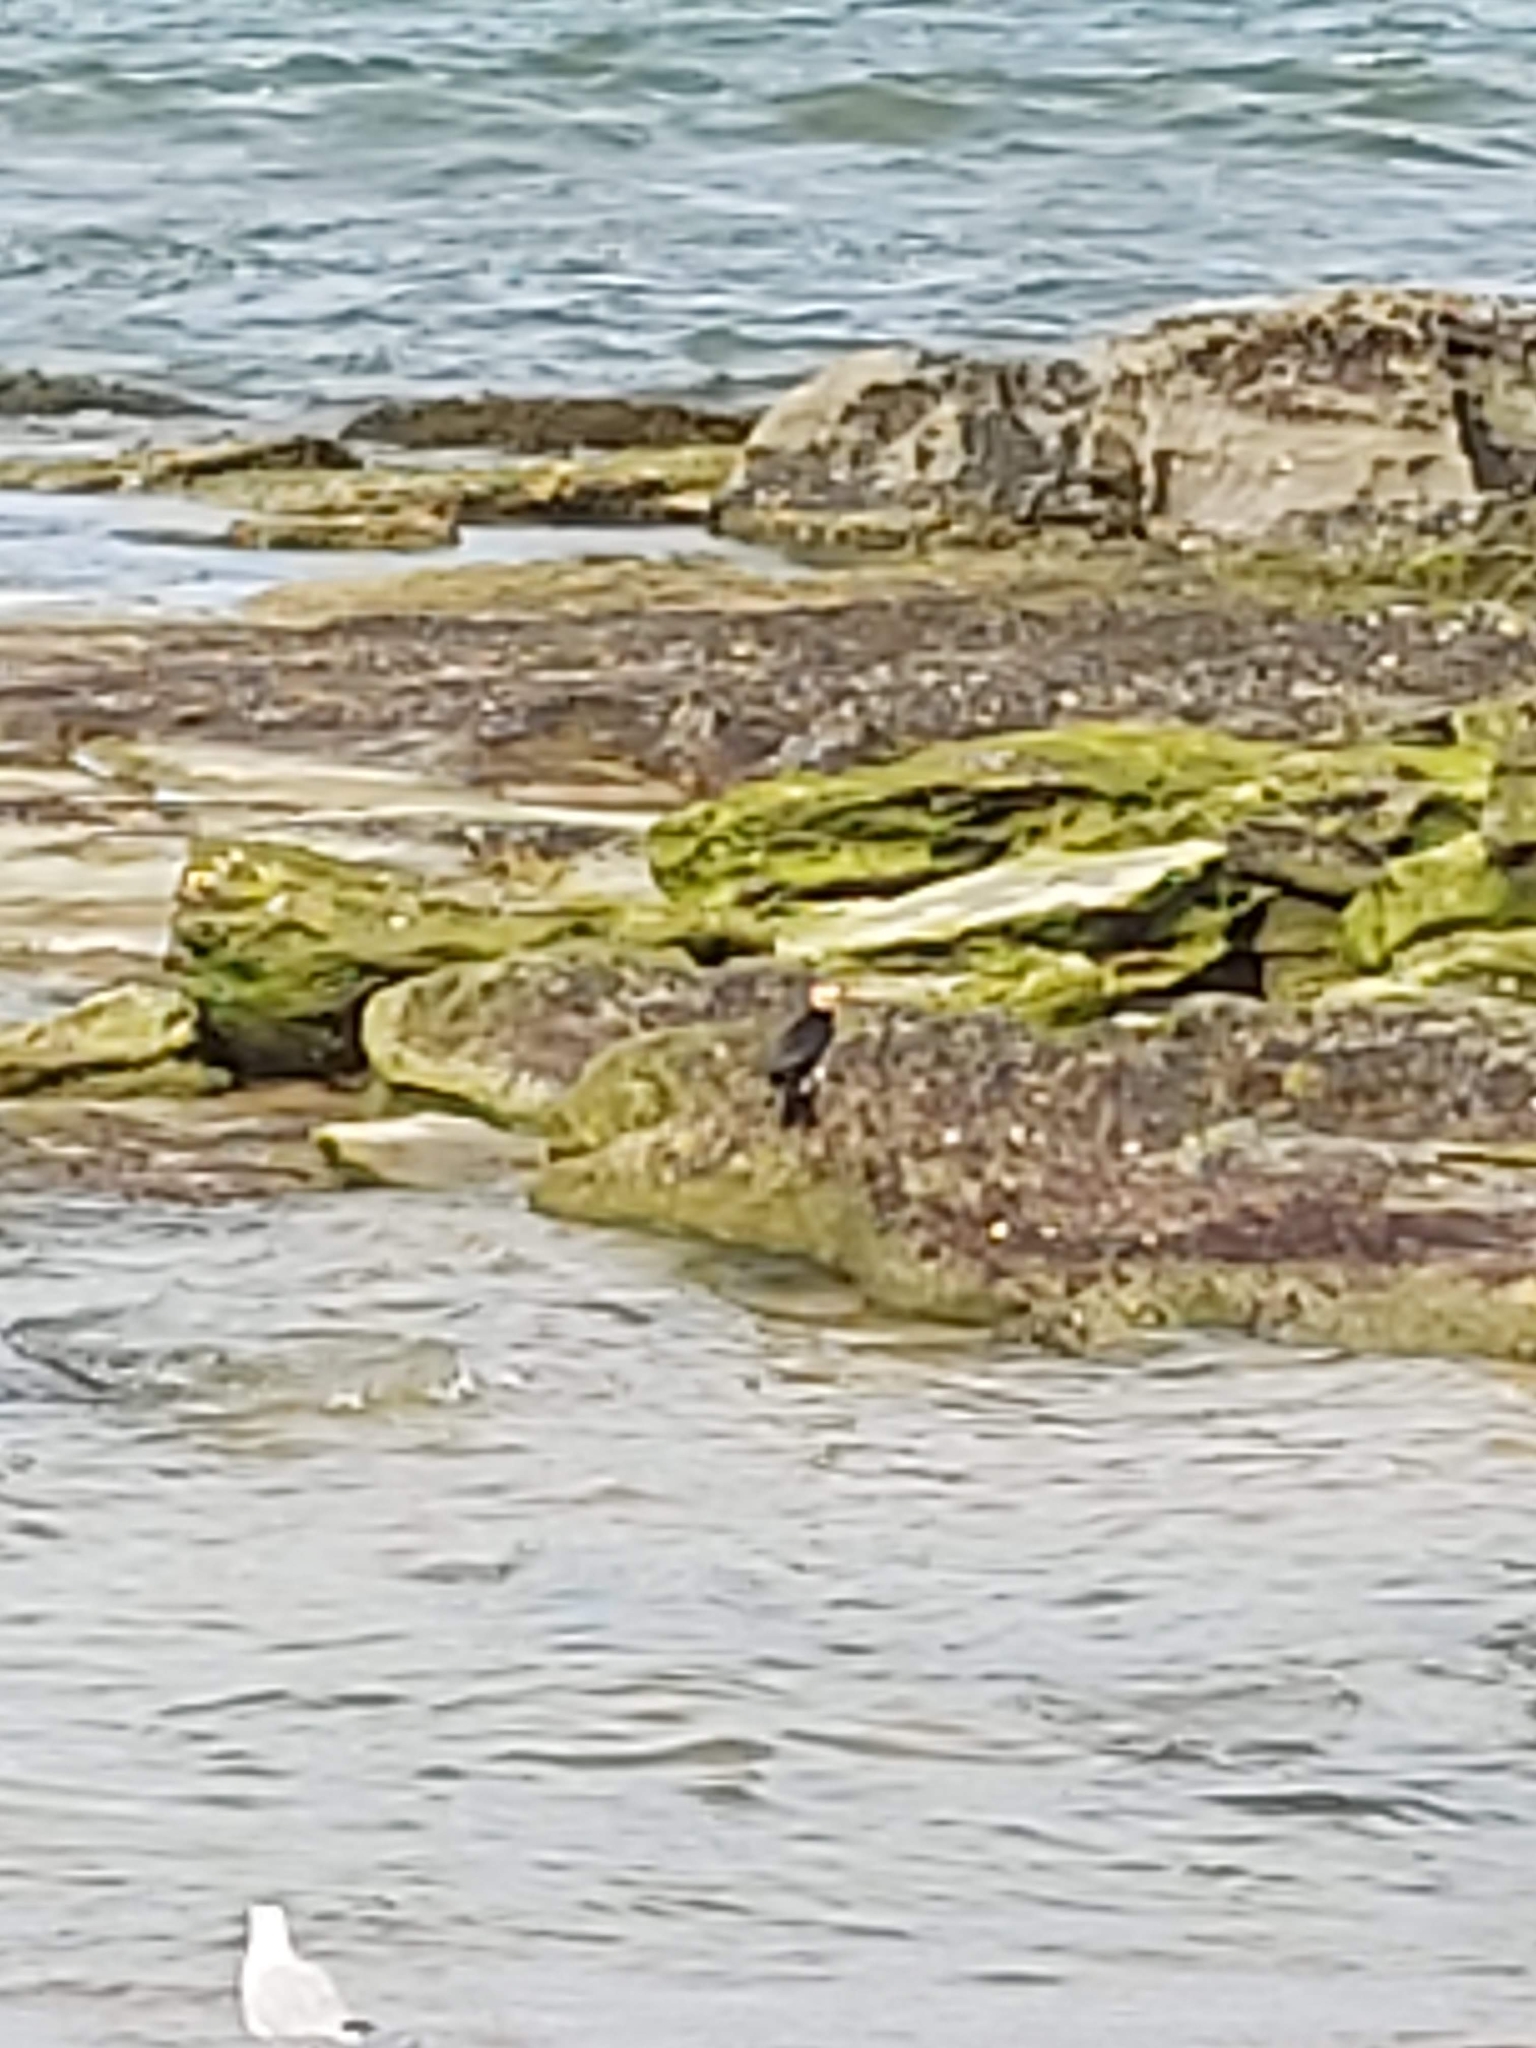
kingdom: Animalia
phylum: Chordata
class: Aves
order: Suliformes
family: Phalacrocoracidae
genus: Microcarbo
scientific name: Microcarbo melanoleucos
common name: Little pied cormorant
